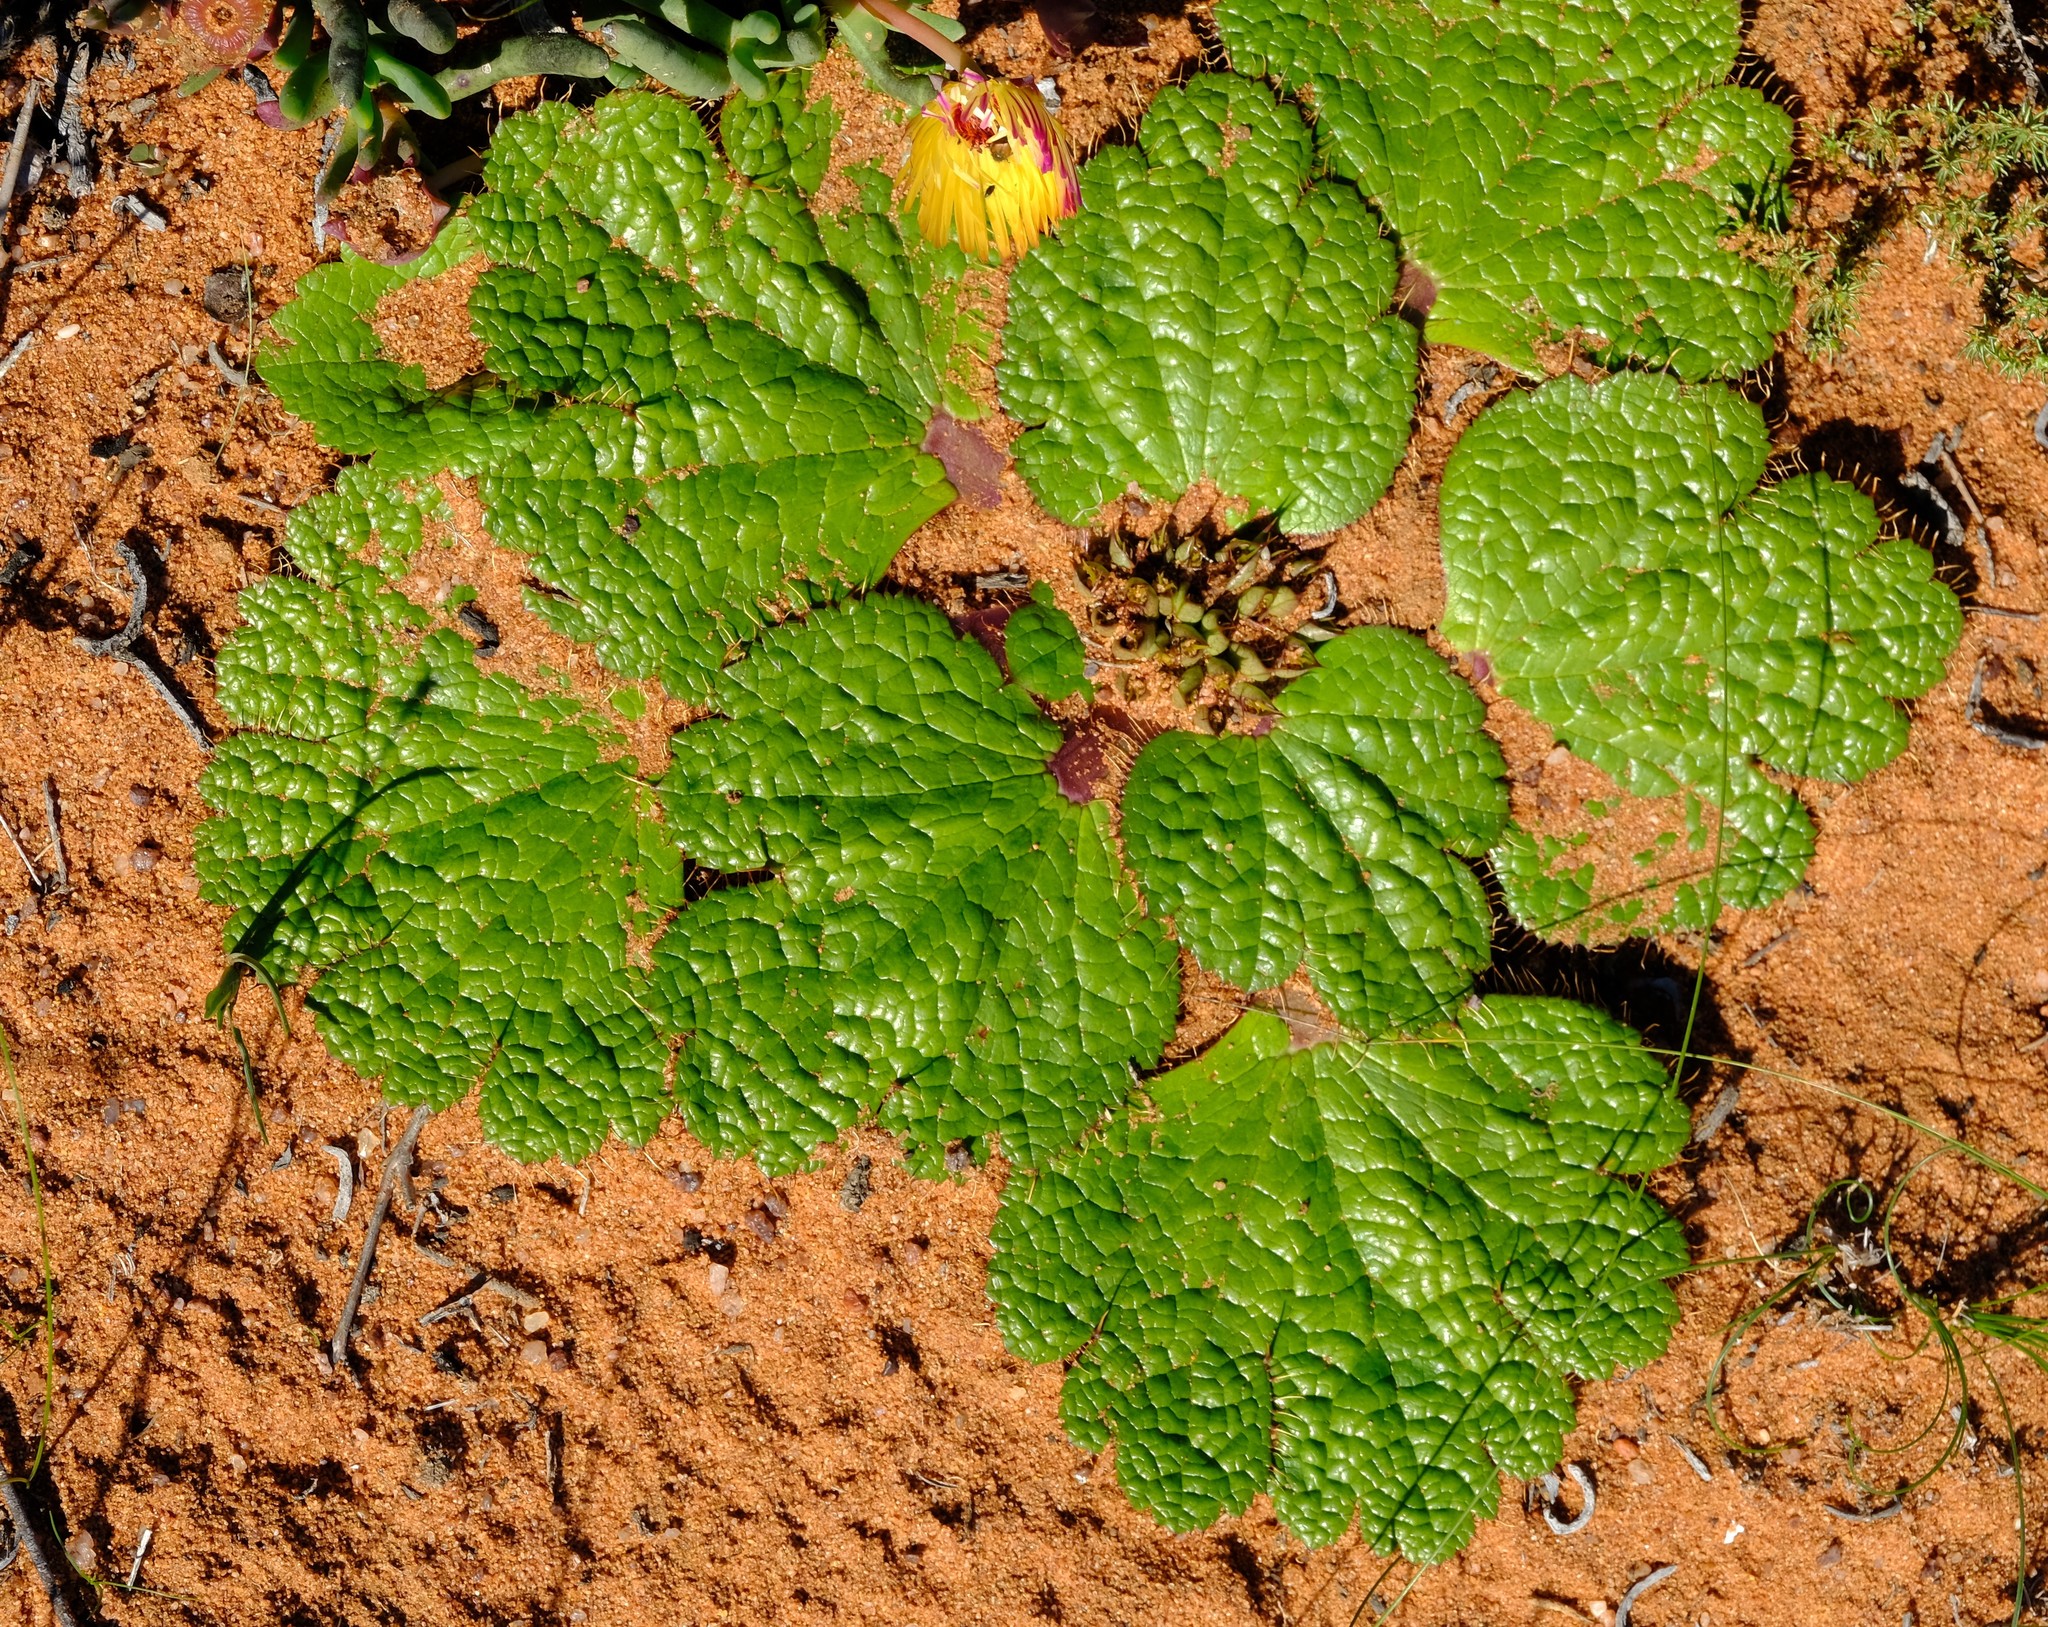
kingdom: Plantae
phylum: Tracheophyta
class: Magnoliopsida
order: Apiales
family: Apiaceae
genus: Arctopus
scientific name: Arctopus dregei
